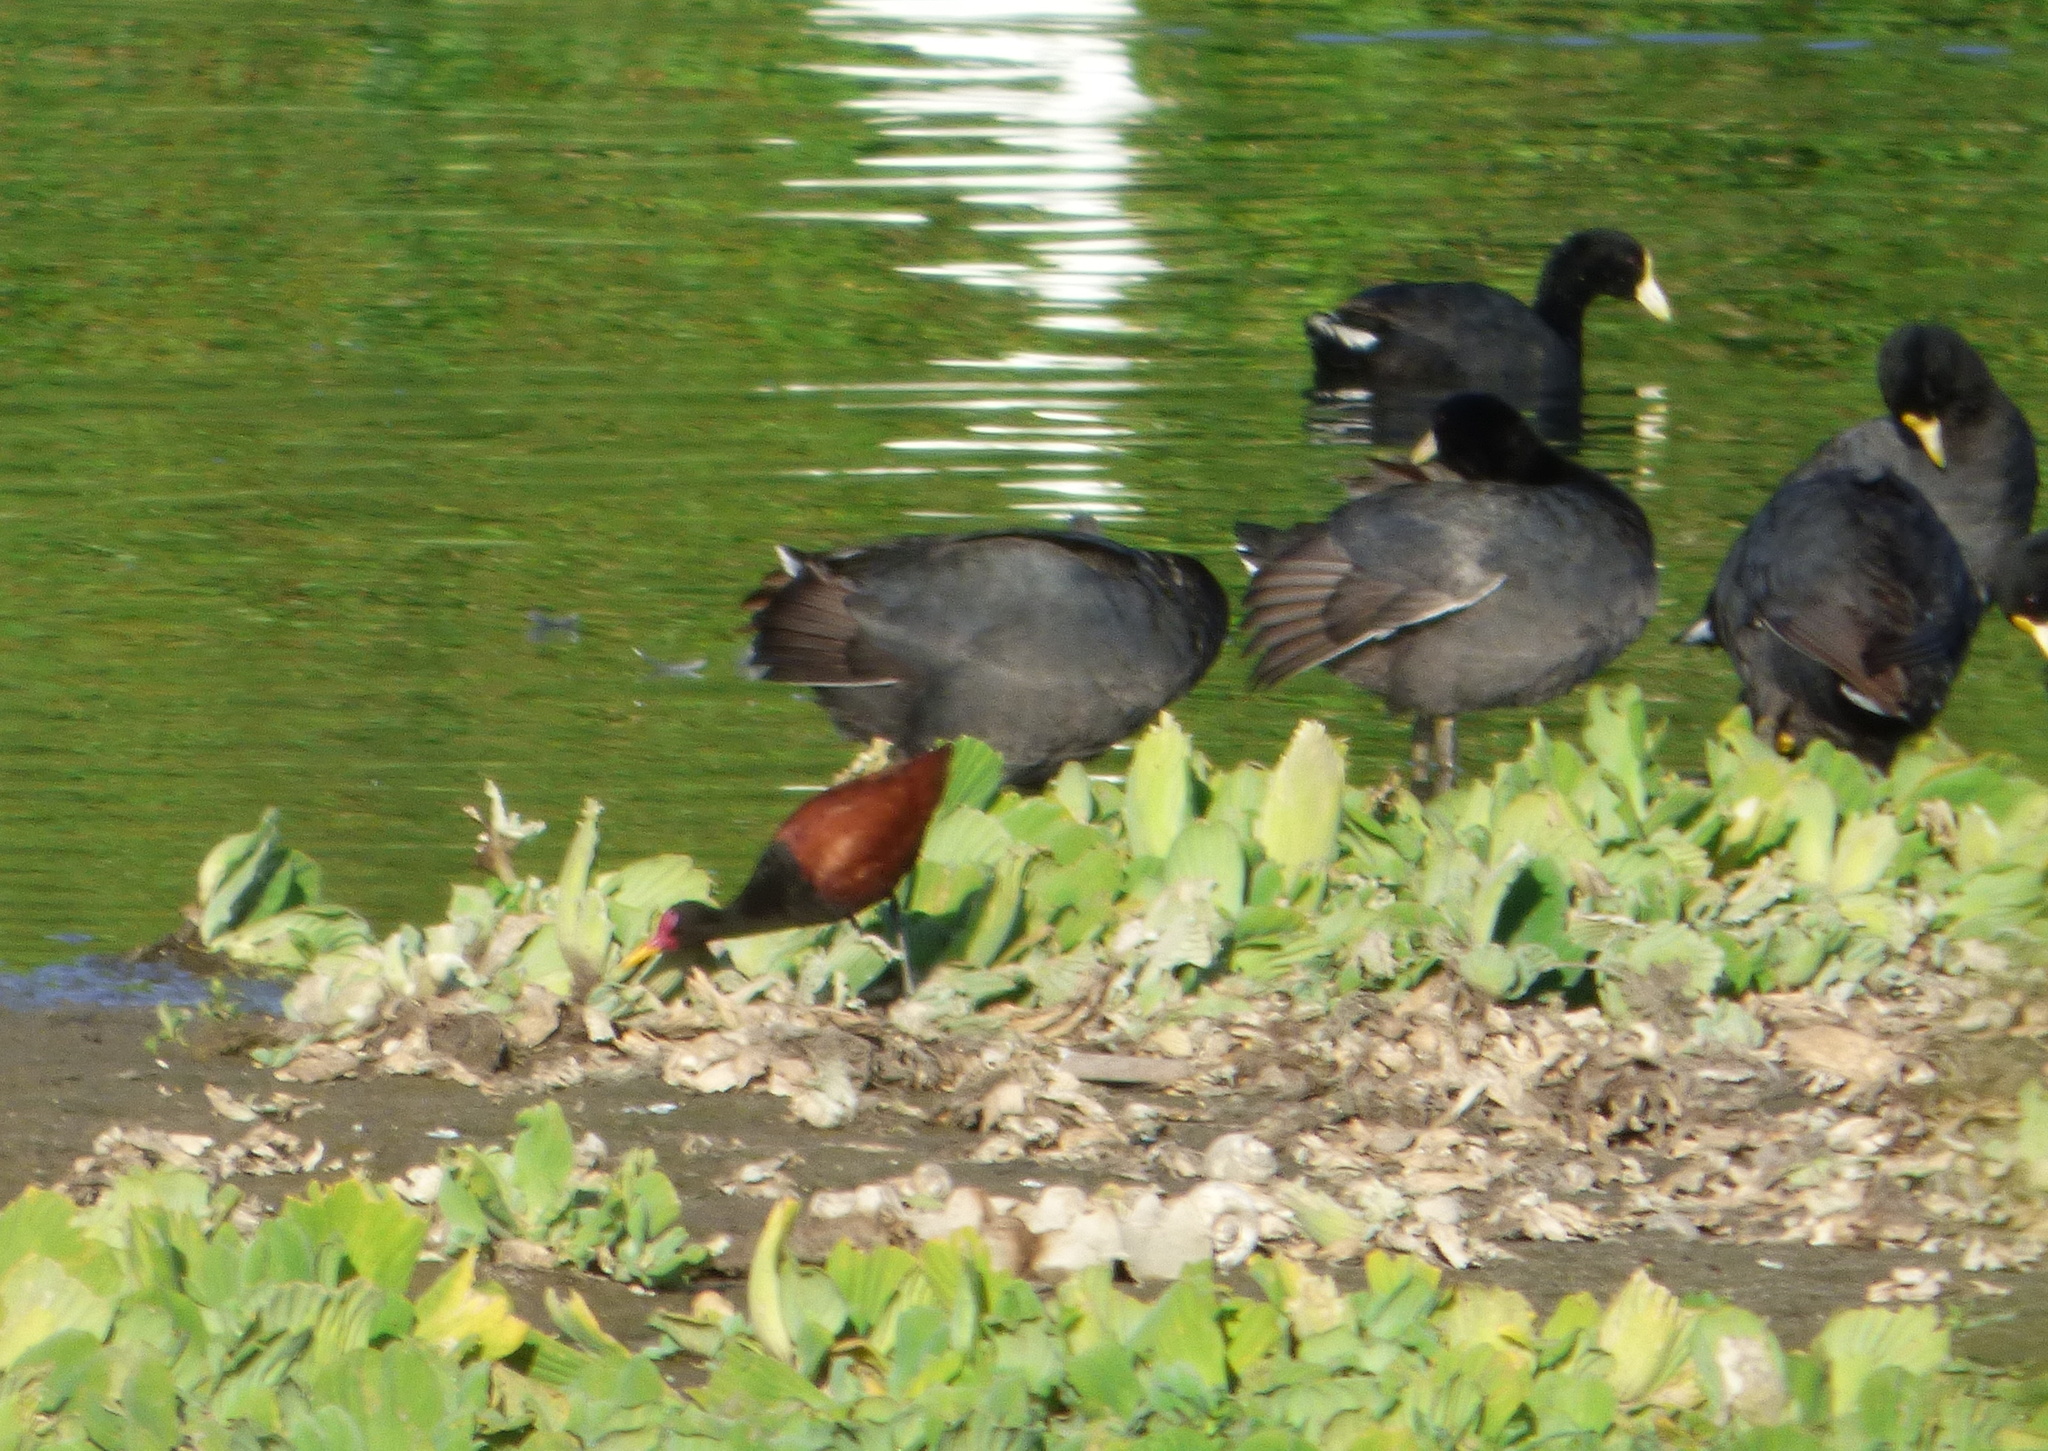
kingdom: Animalia
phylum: Chordata
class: Aves
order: Charadriiformes
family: Jacanidae
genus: Jacana
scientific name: Jacana jacana
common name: Wattled jacana
